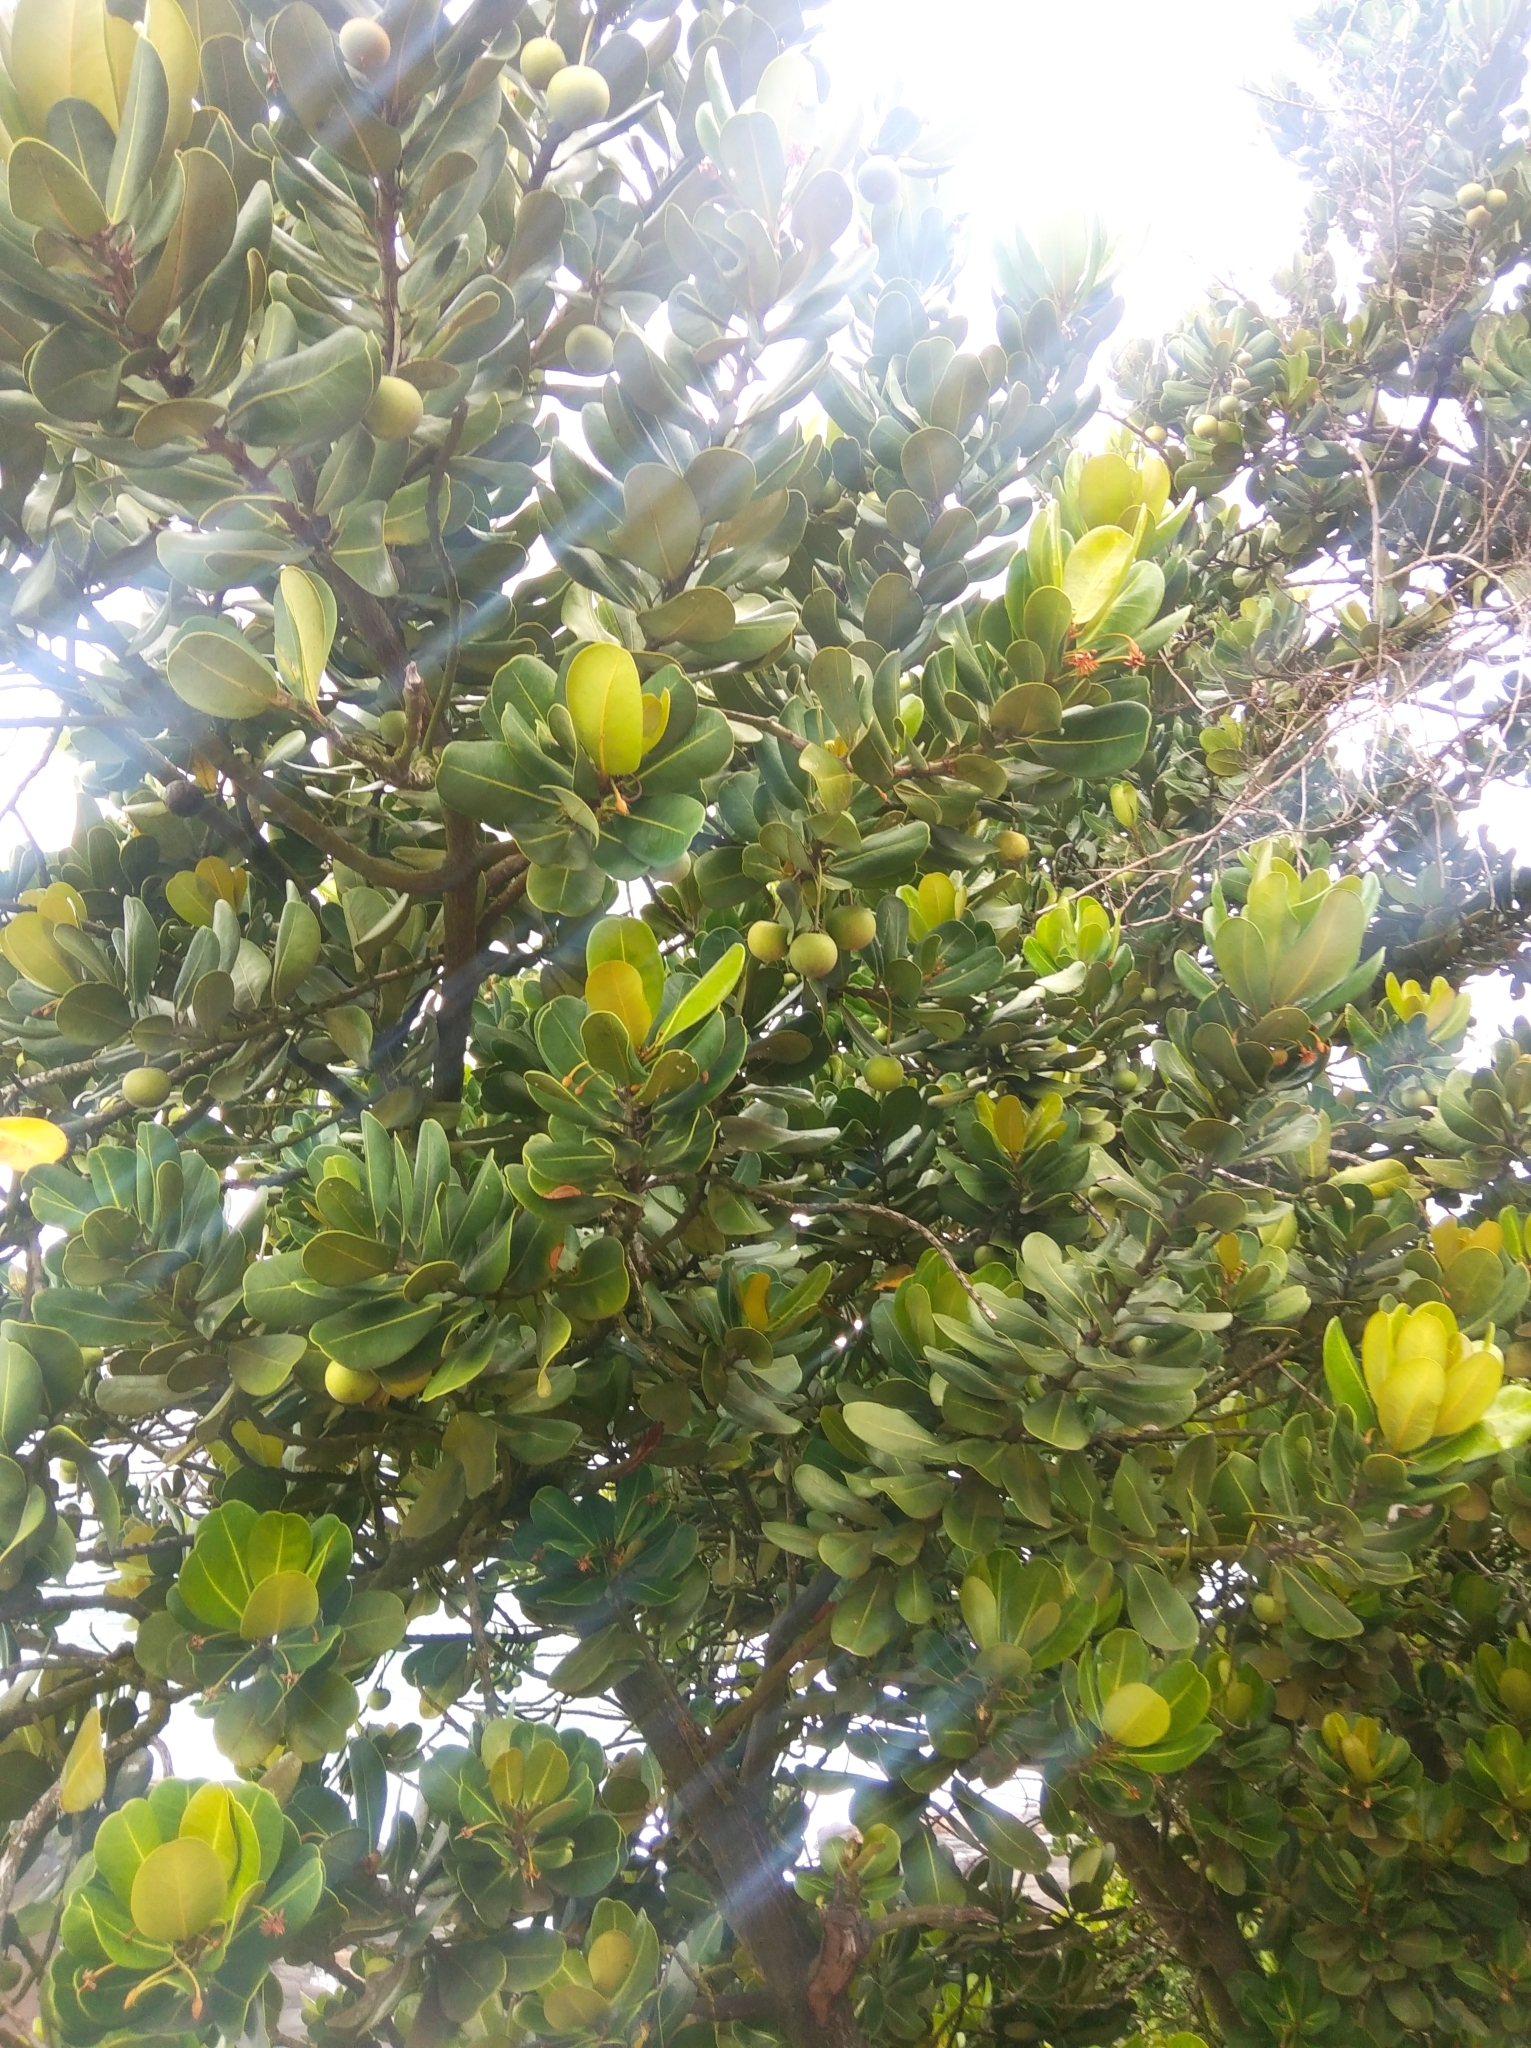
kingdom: Plantae
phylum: Tracheophyta
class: Magnoliopsida
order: Ericales
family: Sapotaceae
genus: Mimusops
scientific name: Mimusops coriacea
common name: Mimusops
